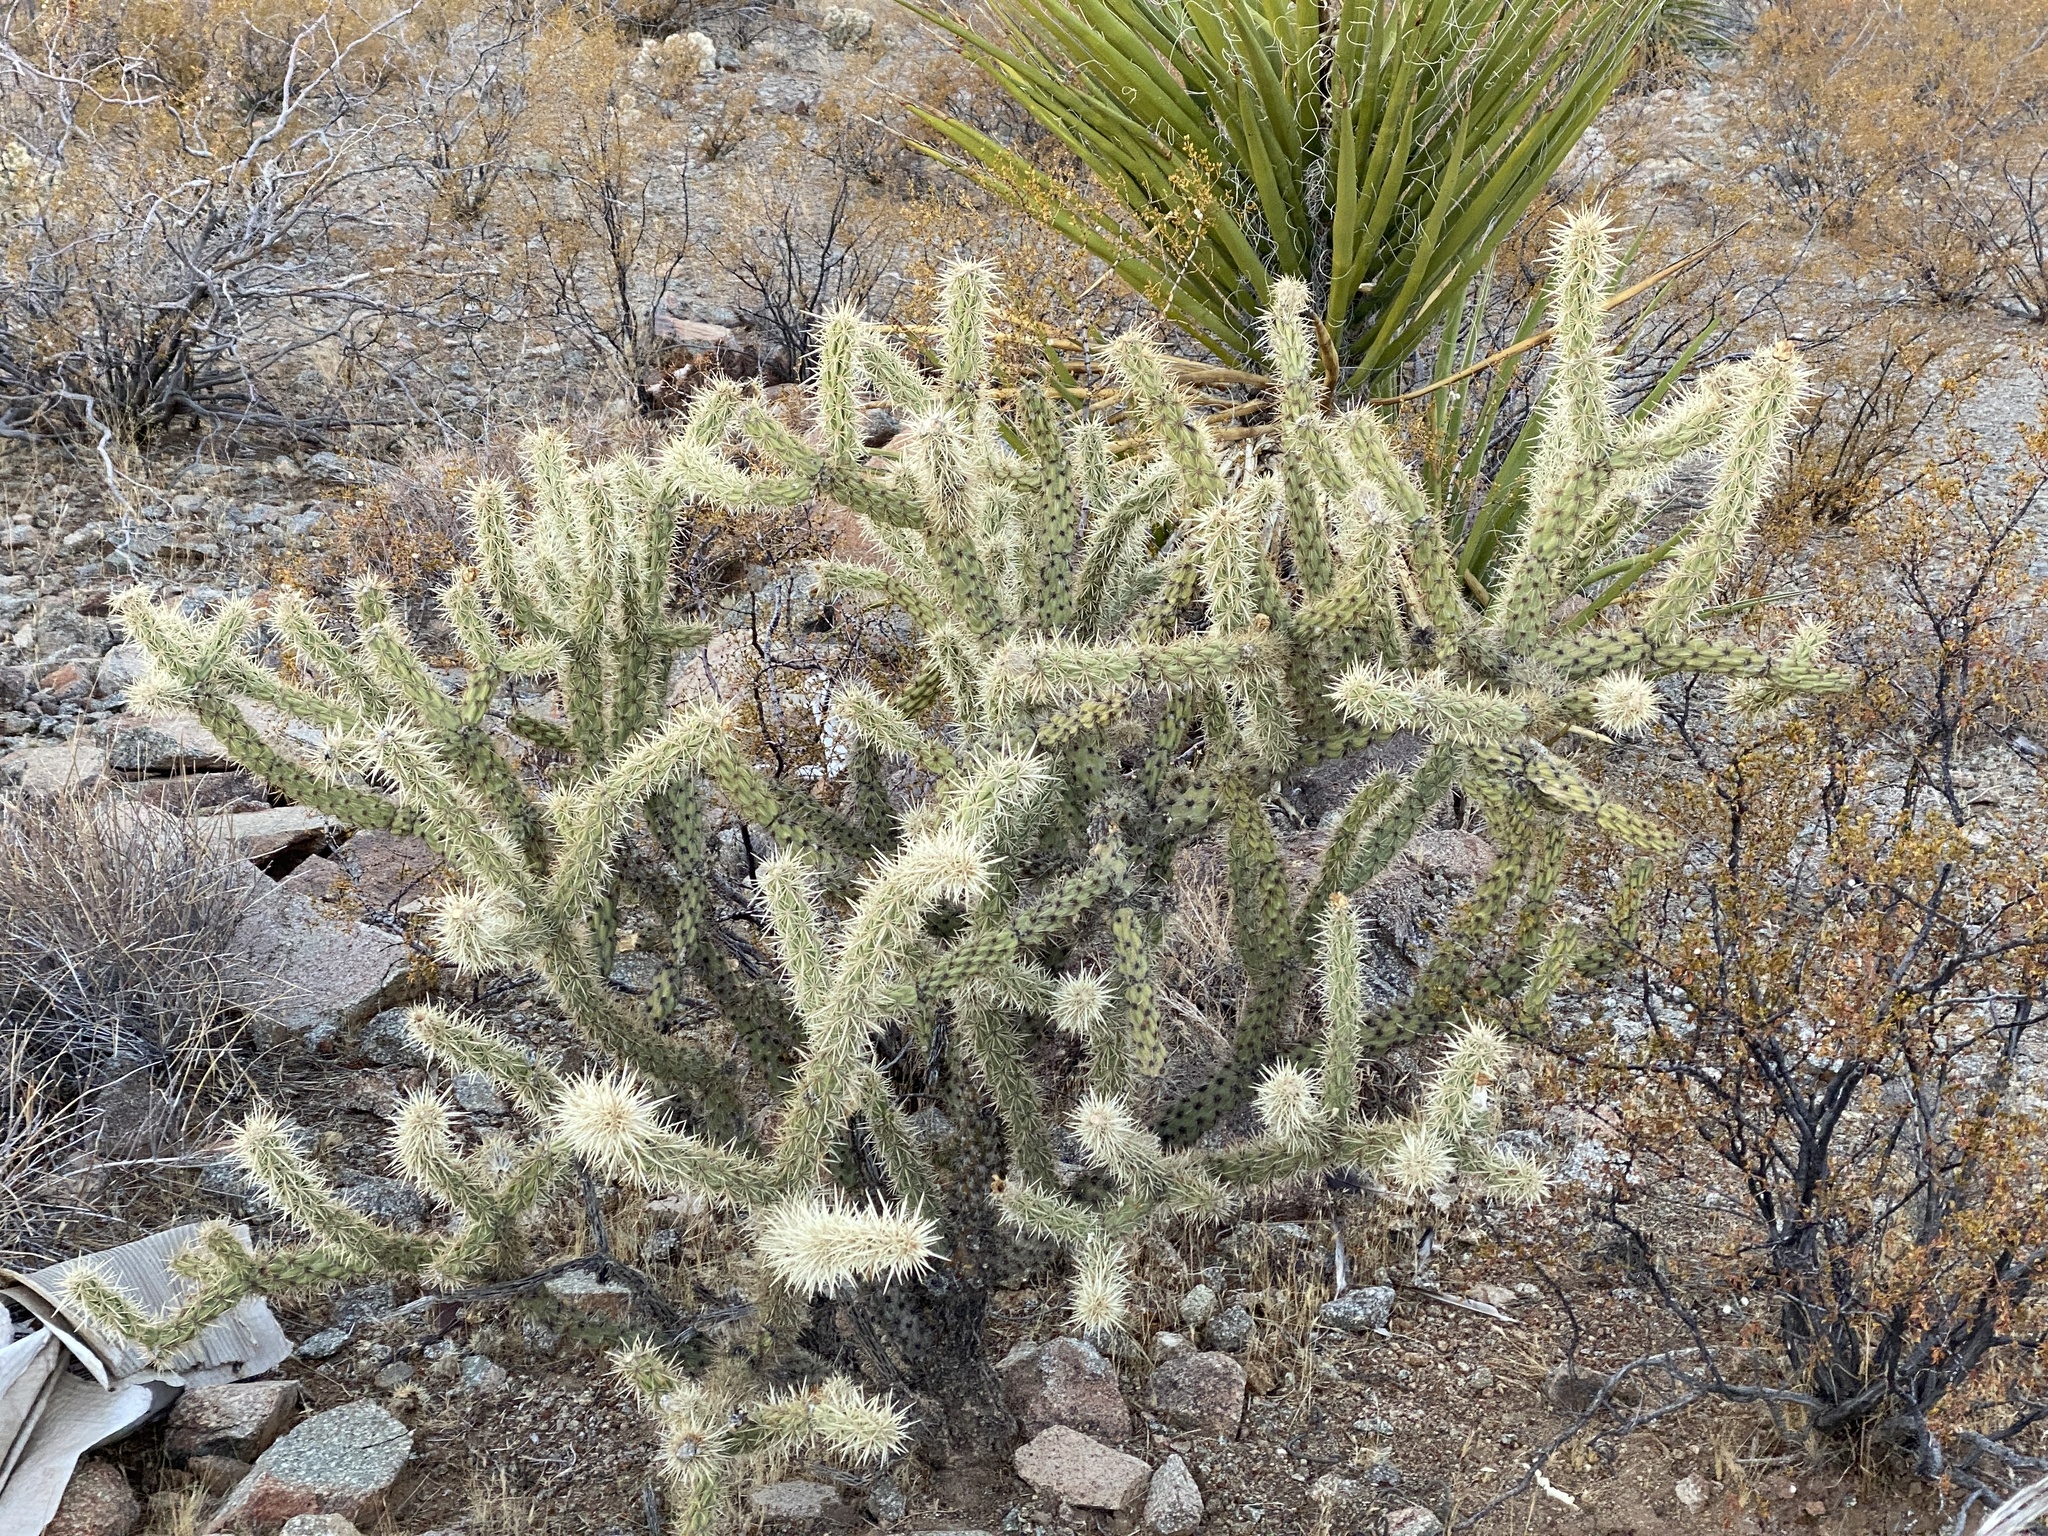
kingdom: Plantae
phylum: Tracheophyta
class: Magnoliopsida
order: Caryophyllales
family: Cactaceae
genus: Cylindropuntia
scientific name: Cylindropuntia acanthocarpa
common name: Buckhorn cholla
